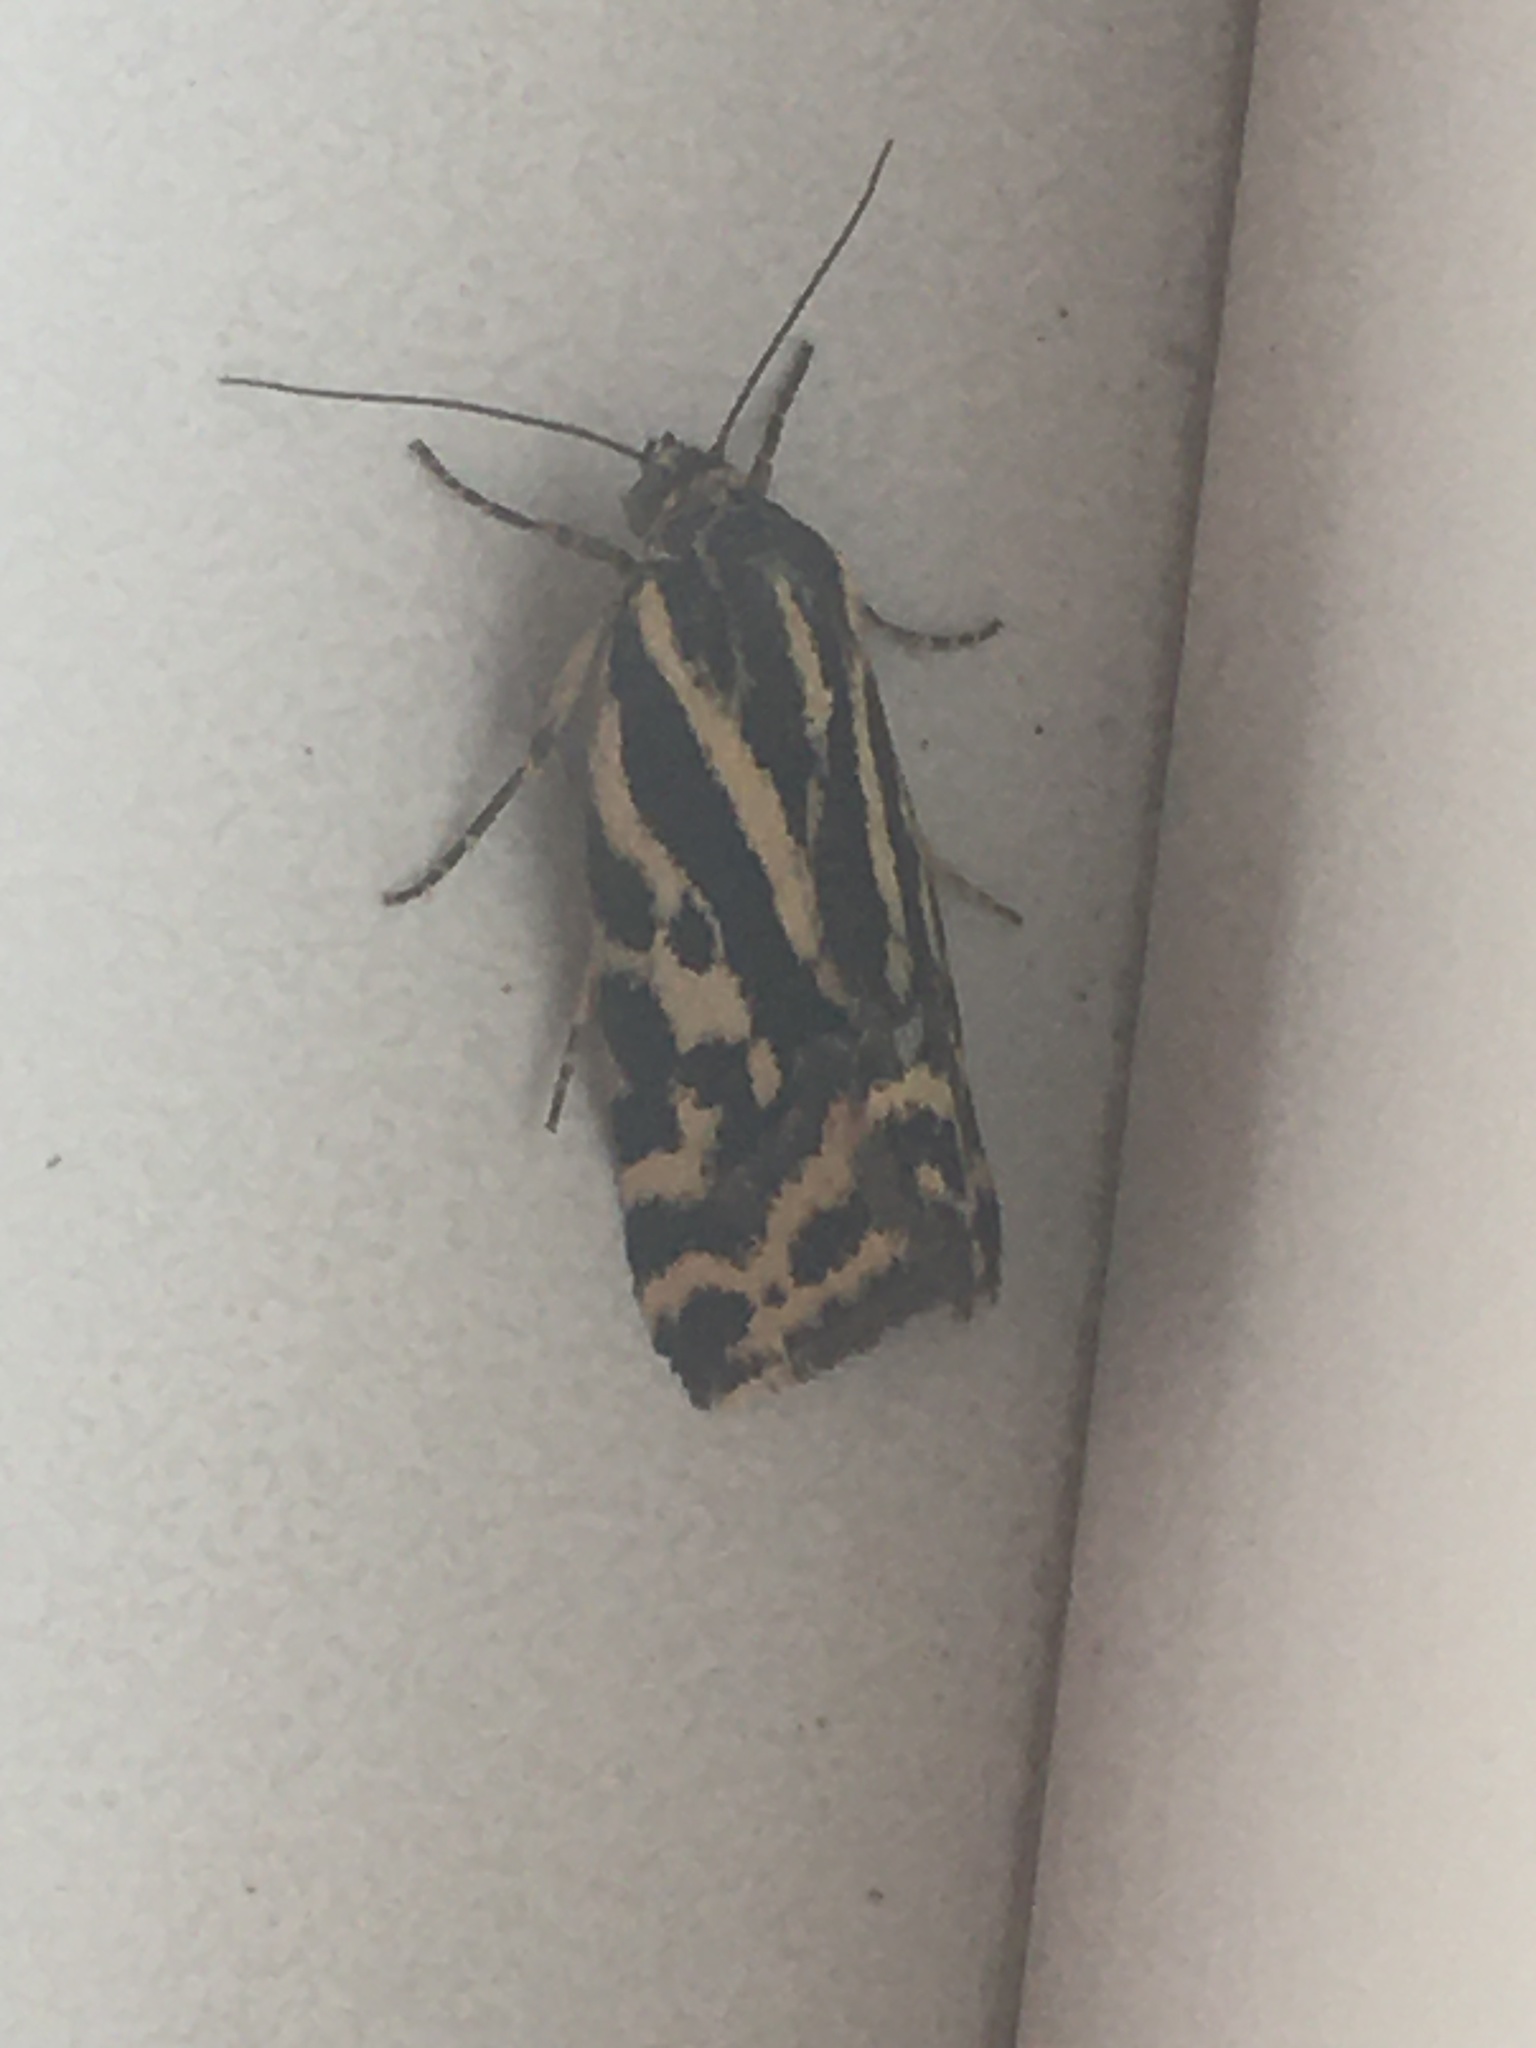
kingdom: Animalia
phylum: Arthropoda
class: Insecta
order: Lepidoptera
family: Noctuidae
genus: Acontia
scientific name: Acontia trabealis
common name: Spotted sulphur
